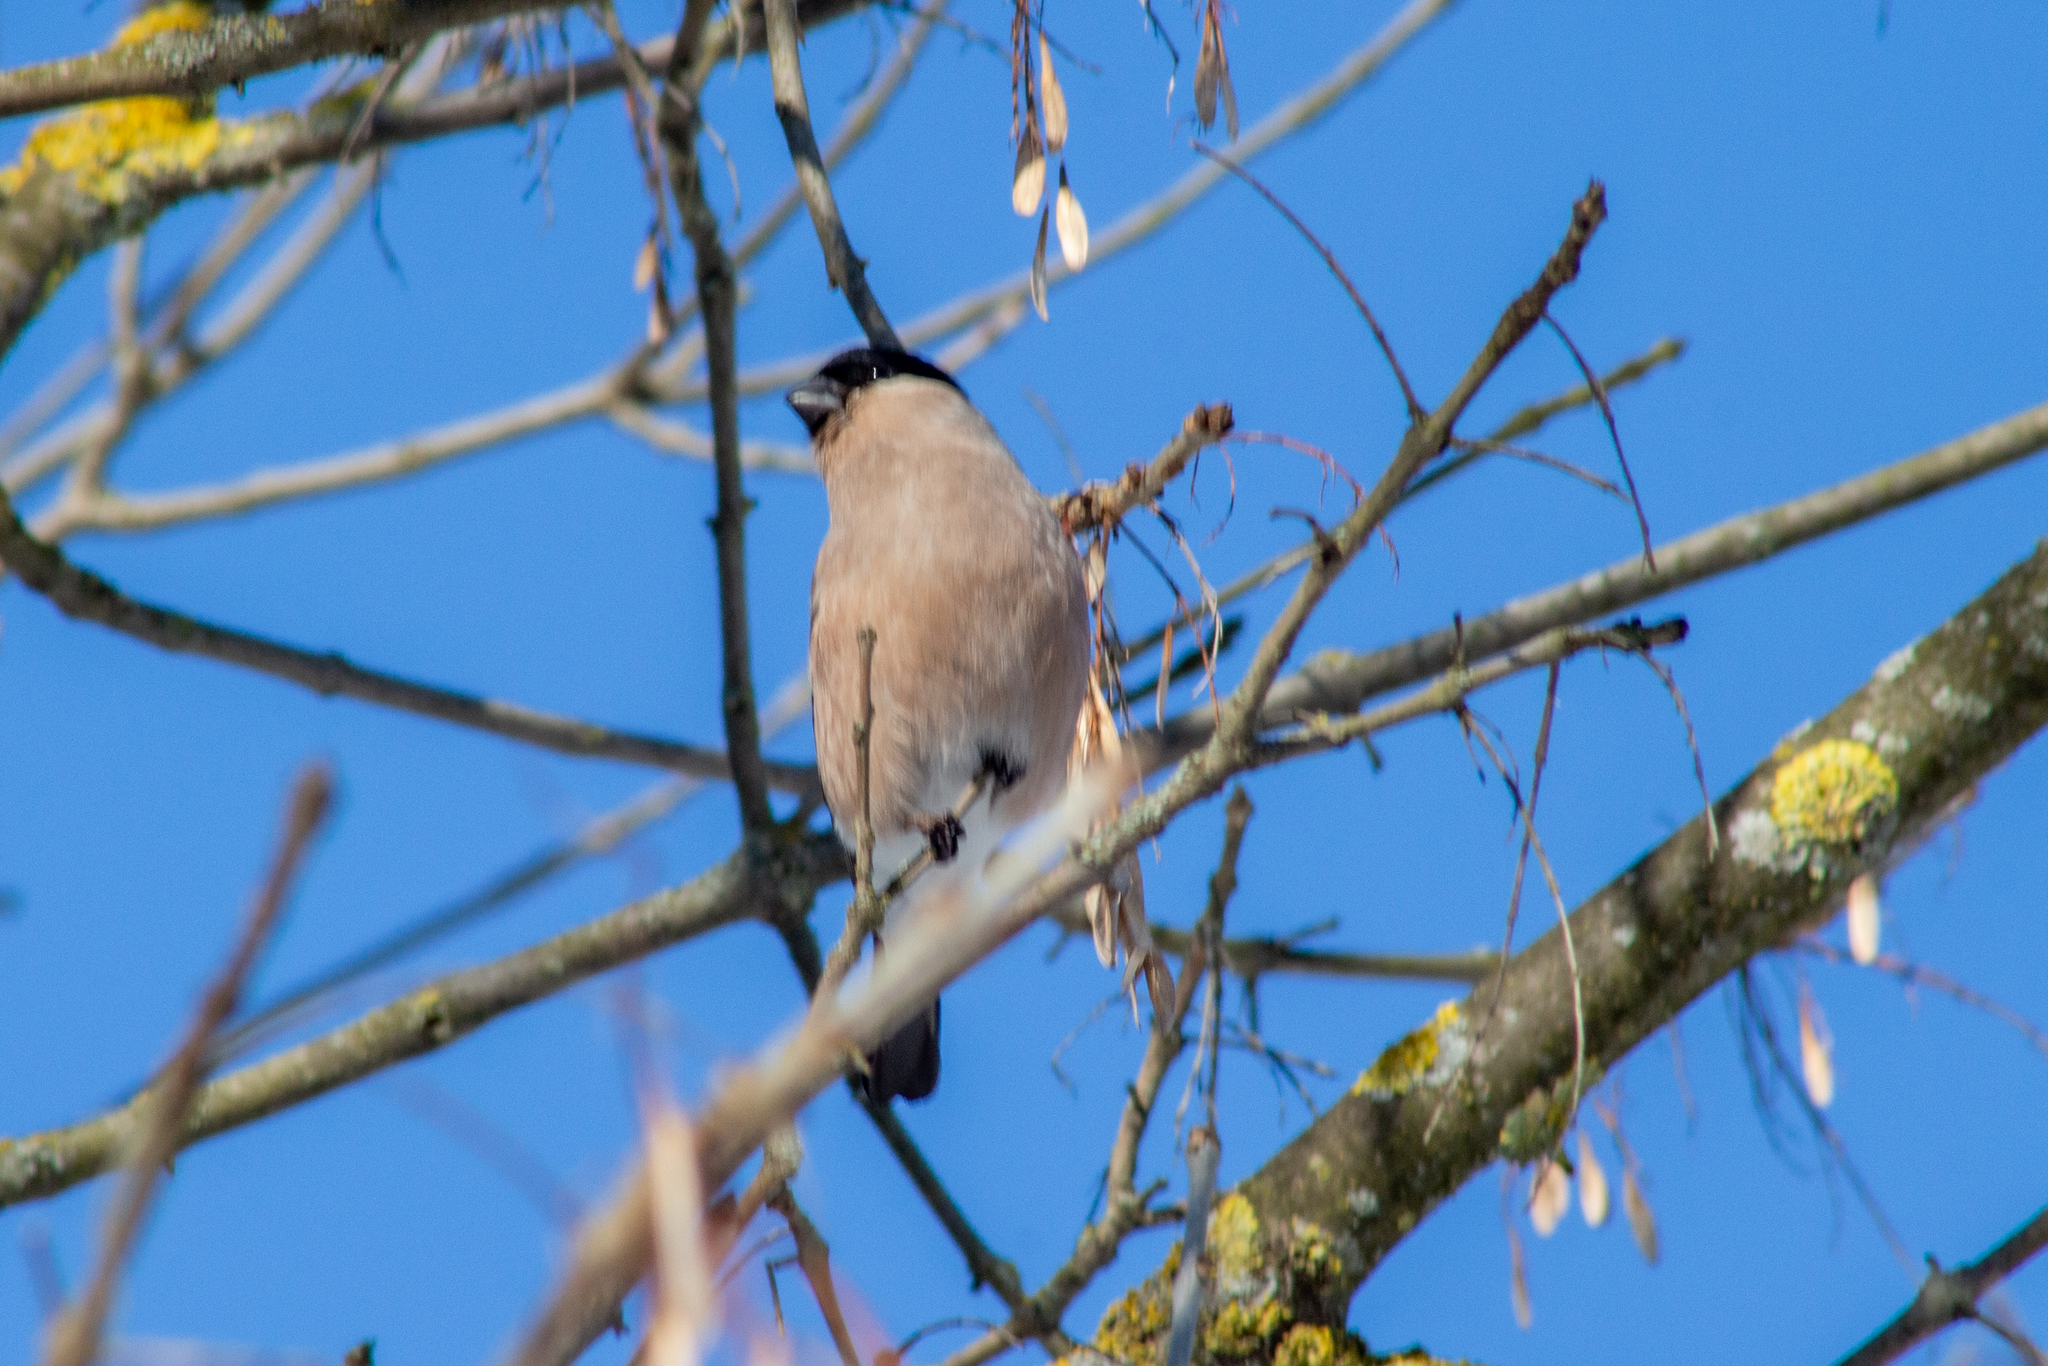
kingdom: Animalia
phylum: Chordata
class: Aves
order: Passeriformes
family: Fringillidae
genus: Pyrrhula
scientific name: Pyrrhula pyrrhula
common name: Eurasian bullfinch
